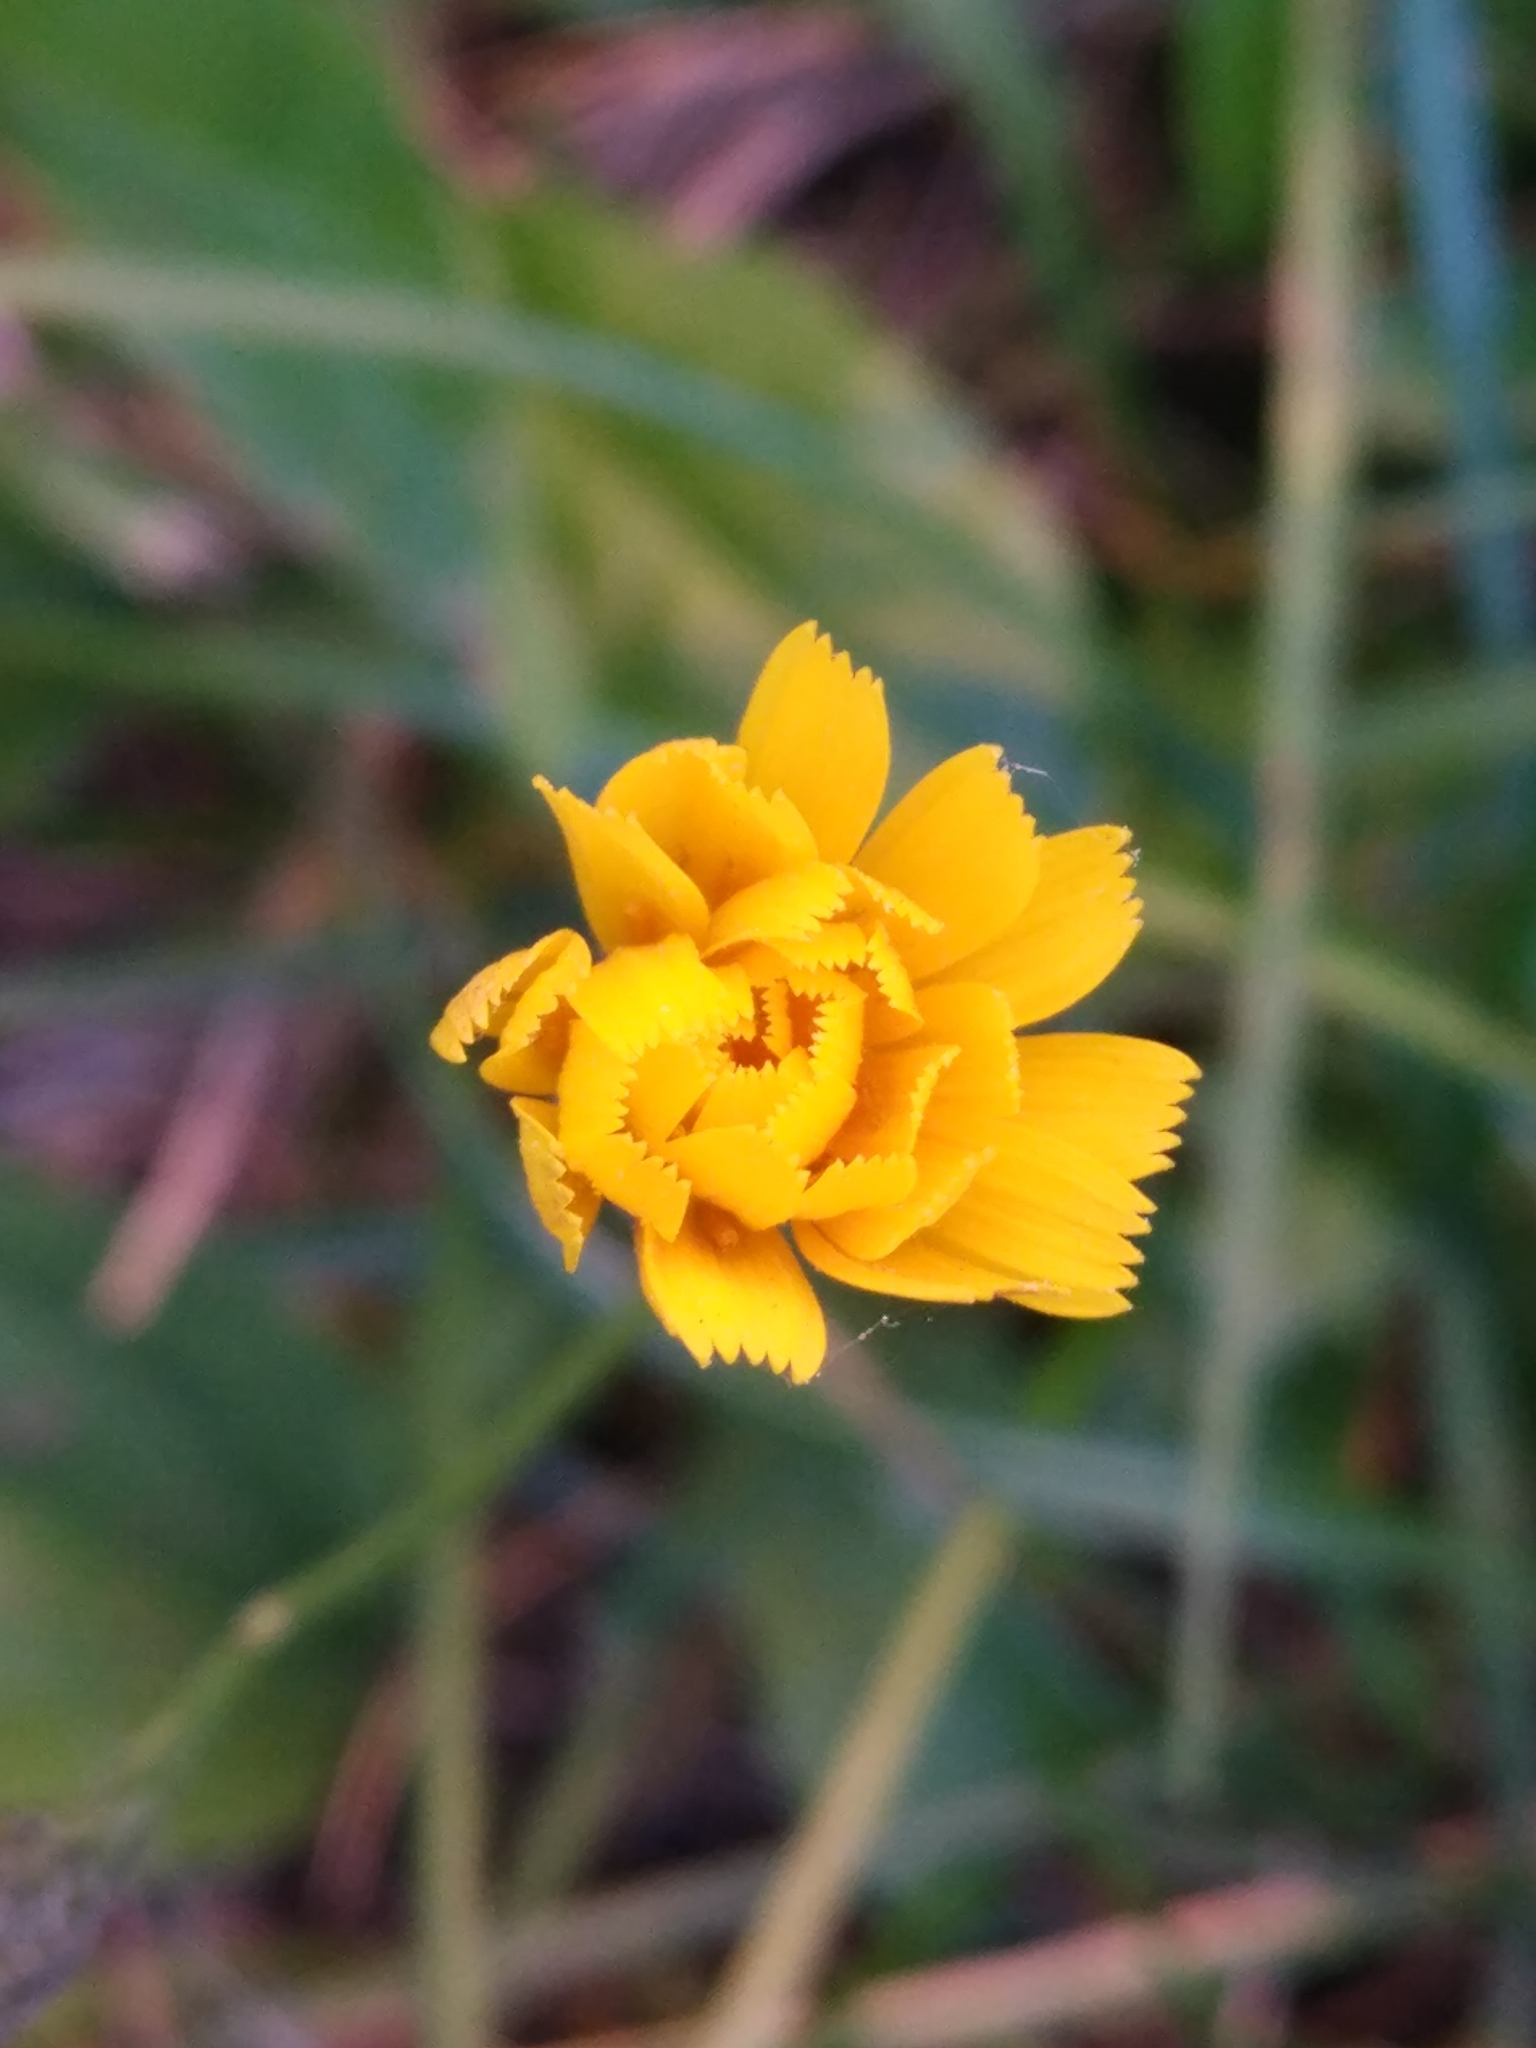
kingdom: Plantae
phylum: Tracheophyta
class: Magnoliopsida
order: Asterales
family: Asteraceae
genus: Scorzoneroides
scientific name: Scorzoneroides autumnalis
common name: Autumn hawkbit
